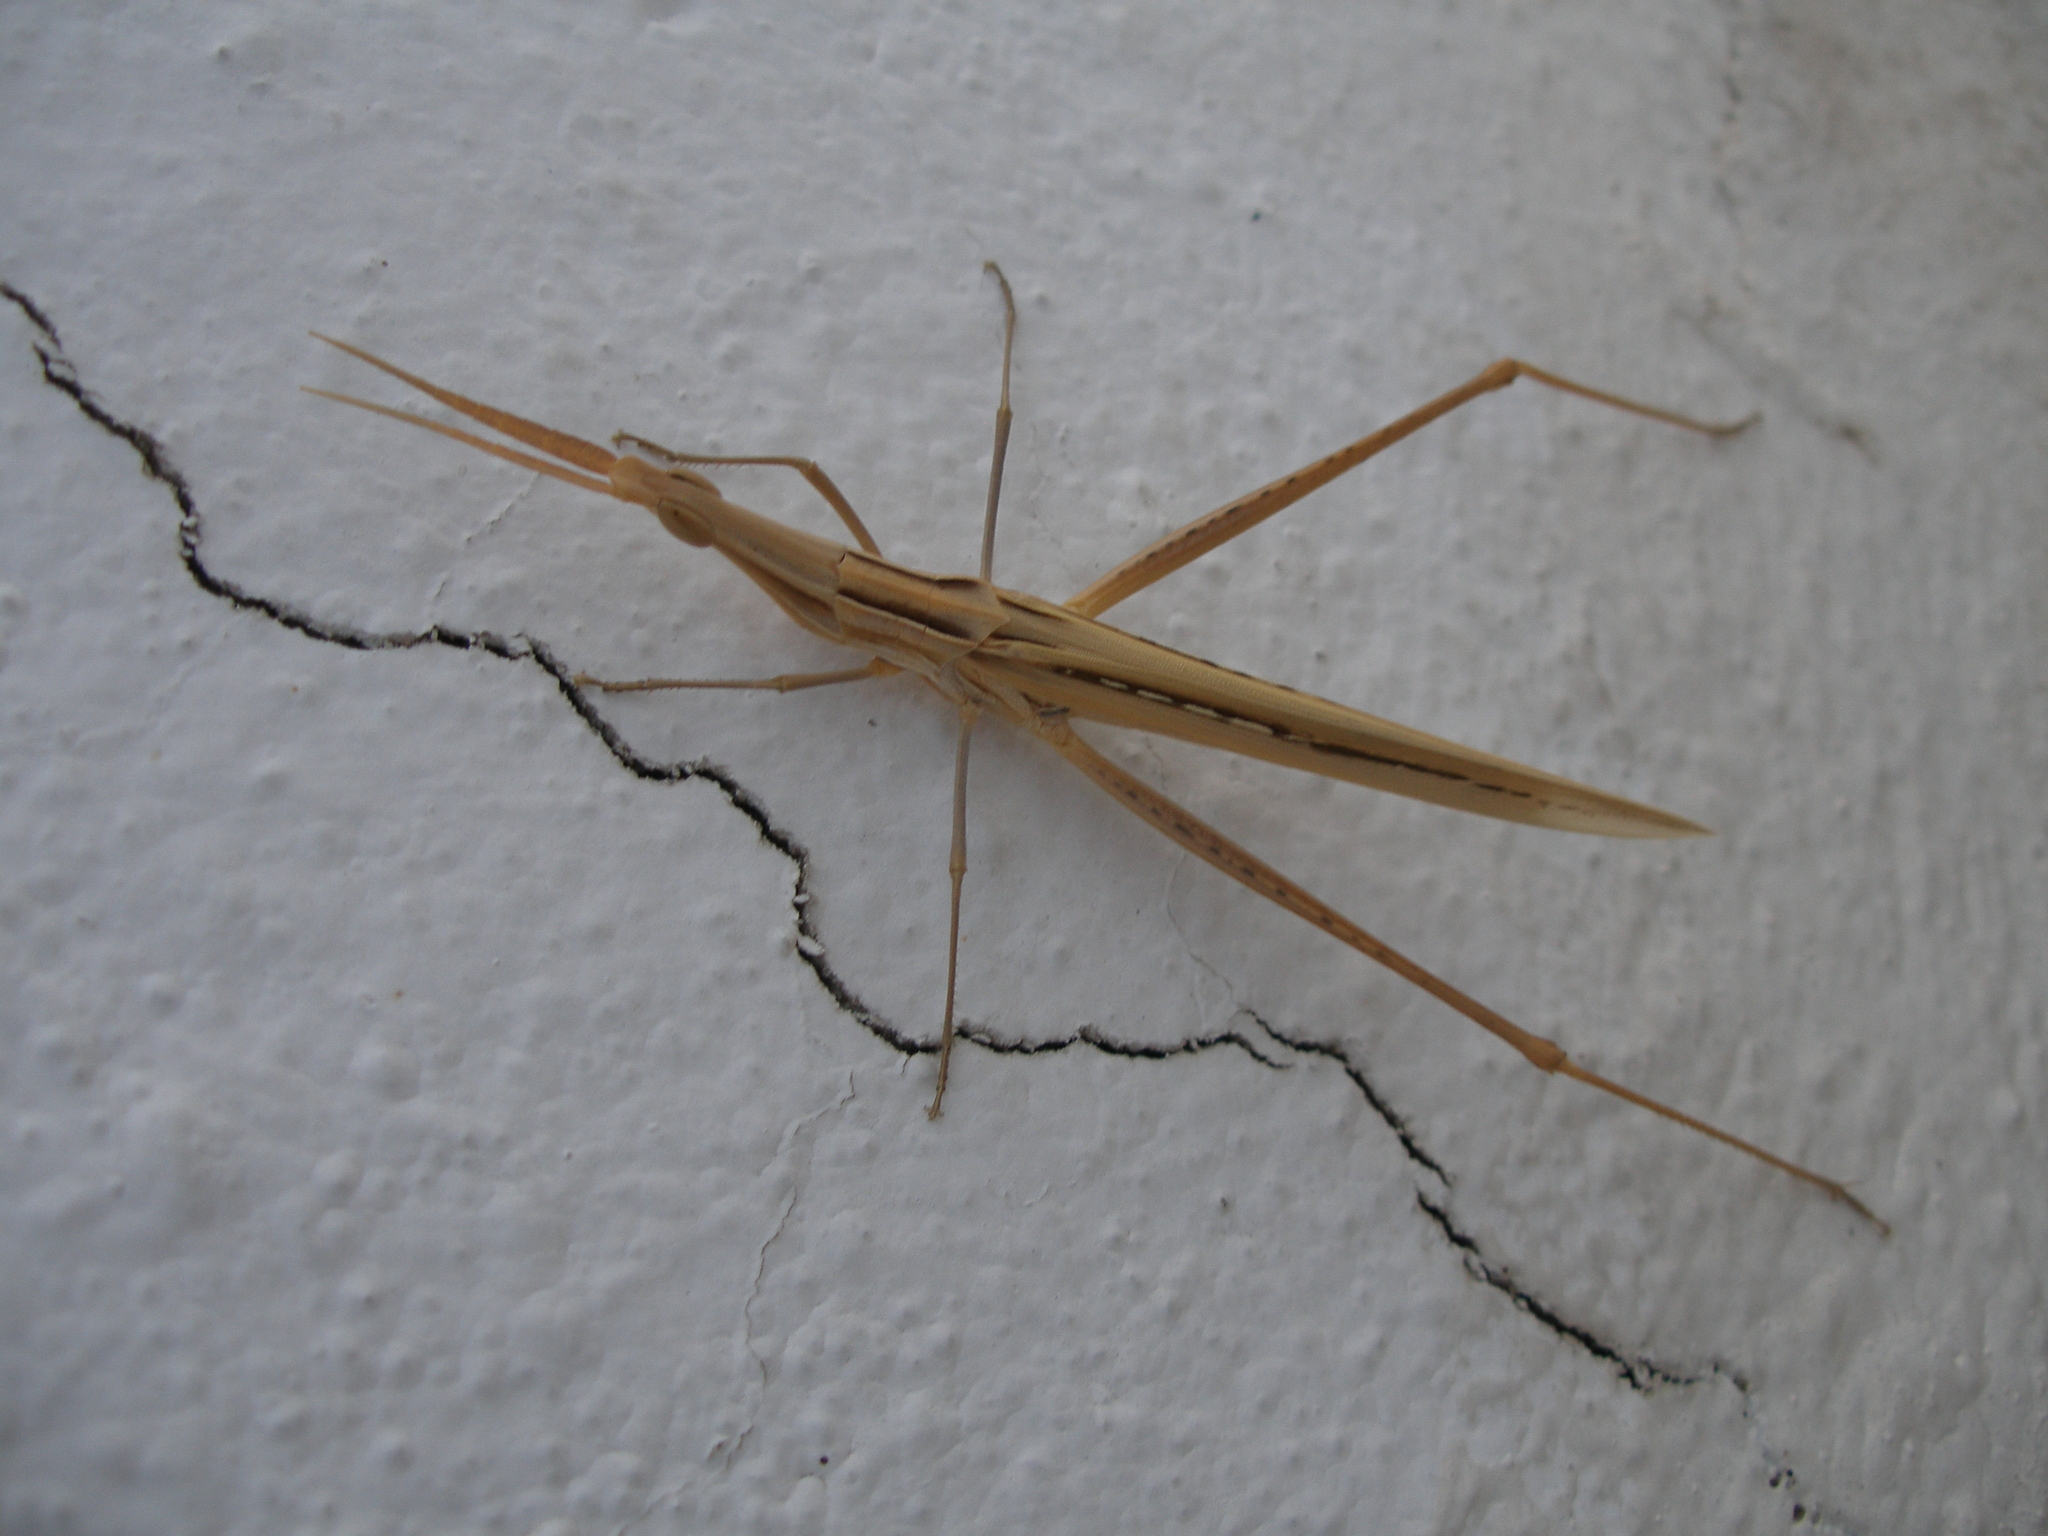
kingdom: Animalia
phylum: Arthropoda
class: Insecta
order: Orthoptera
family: Acrididae
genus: Acrida
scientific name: Acrida ungarica
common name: Common cone-headed grasshopper
